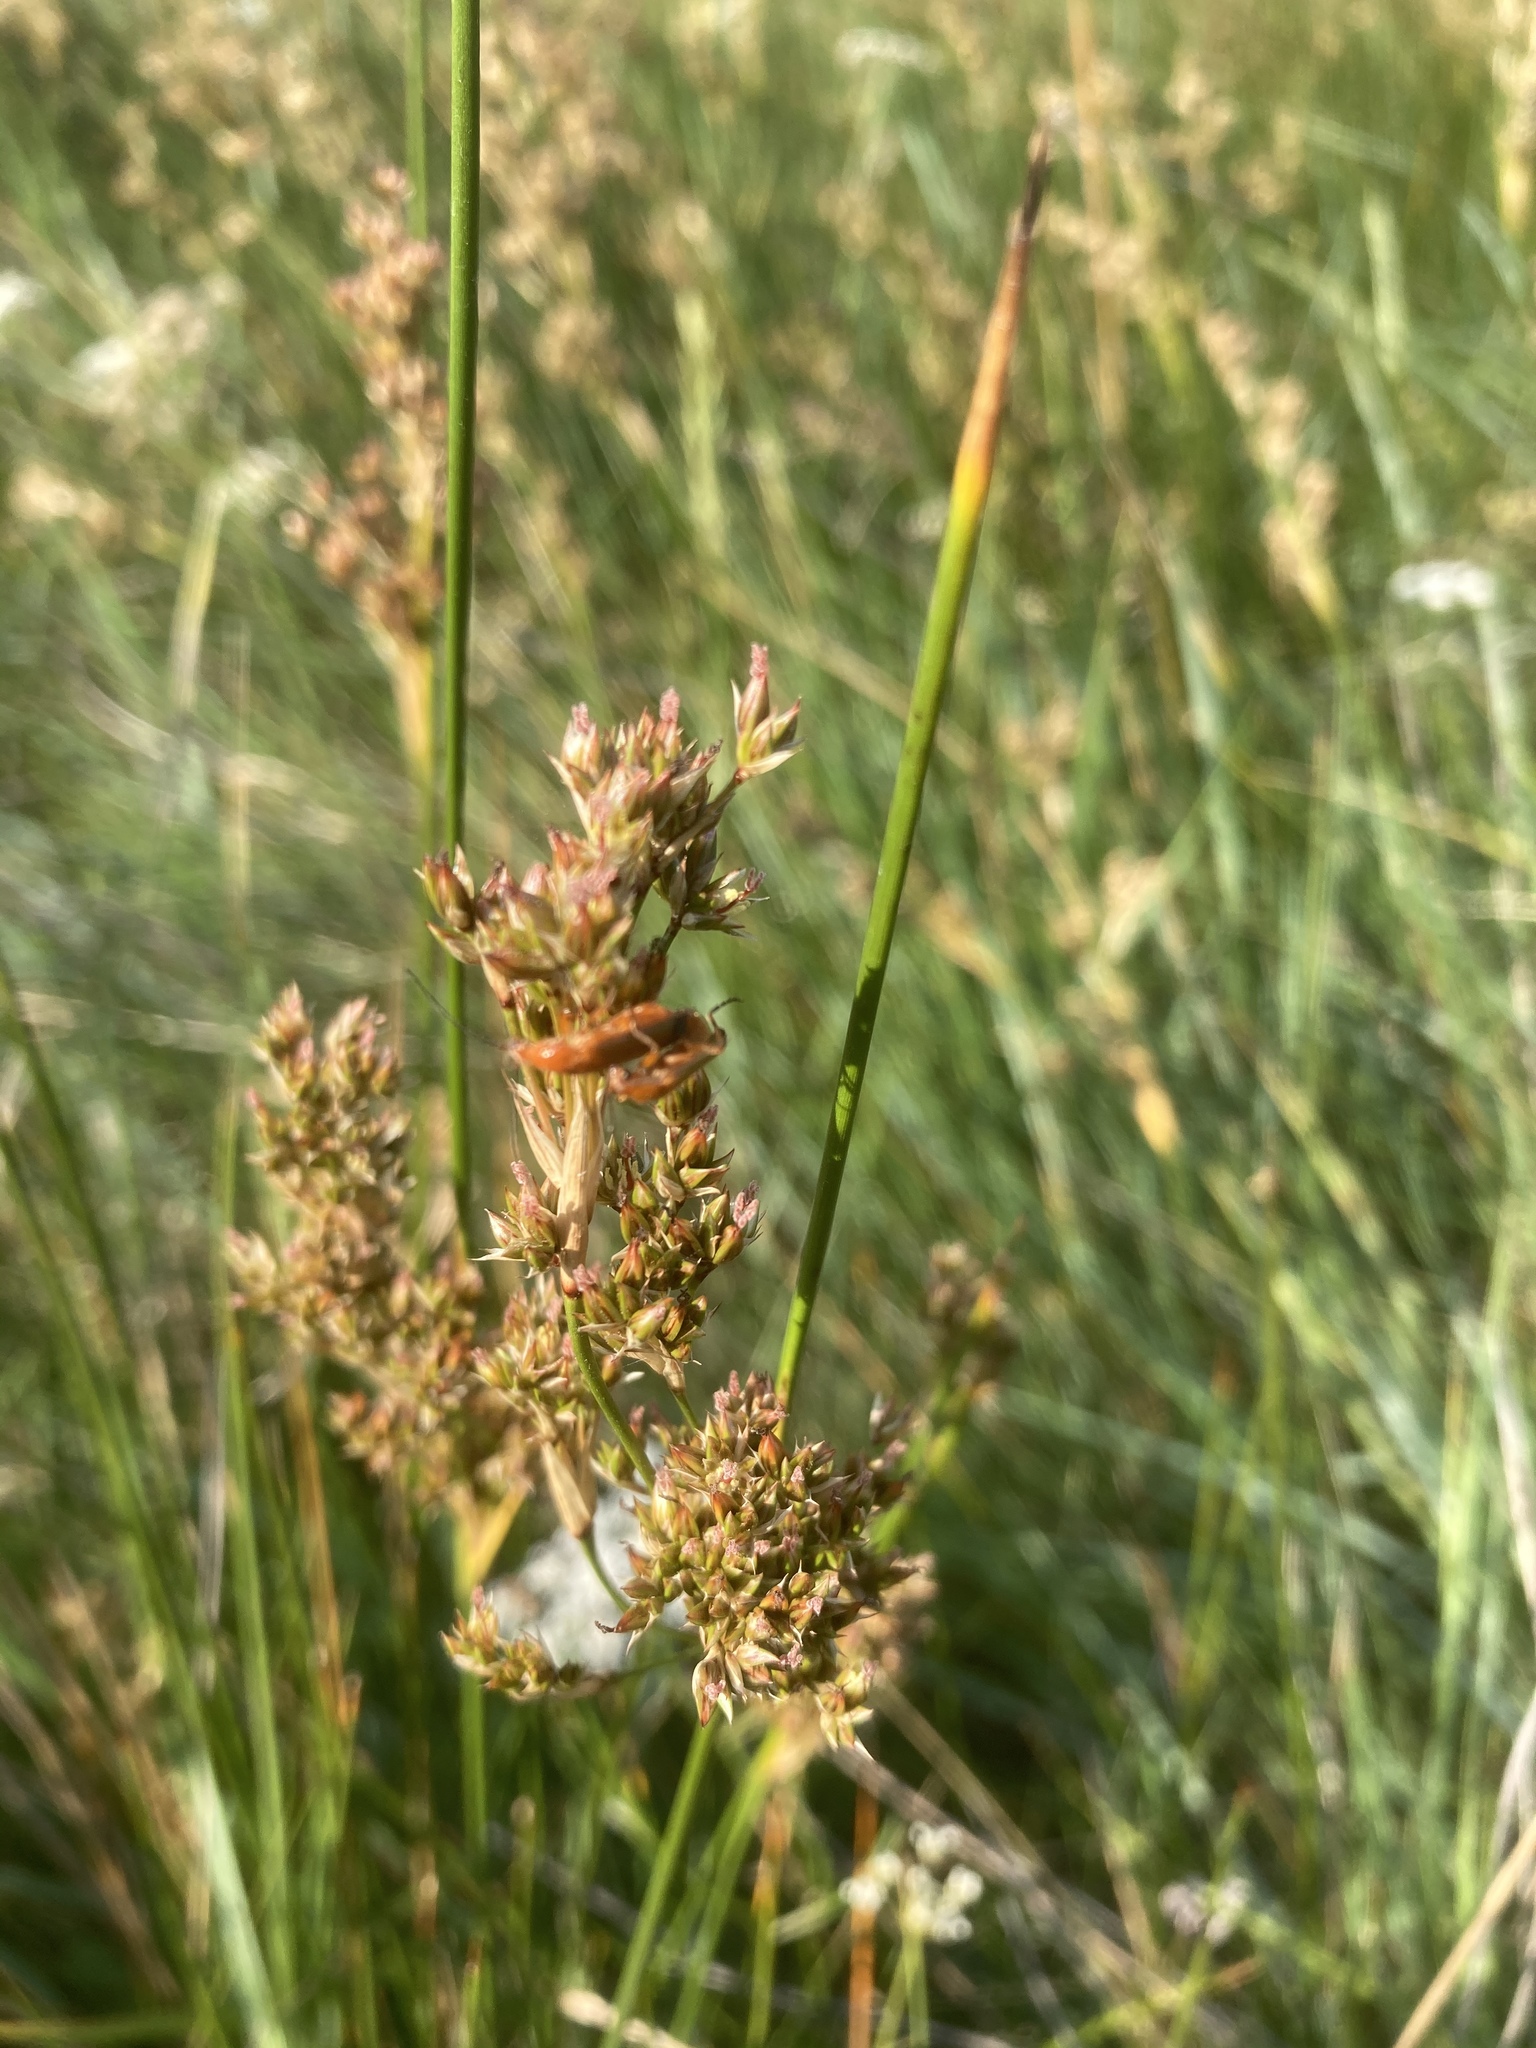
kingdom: Plantae
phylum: Tracheophyta
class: Liliopsida
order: Poales
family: Juncaceae
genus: Juncus
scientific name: Juncus maritimus
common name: Sea rush
